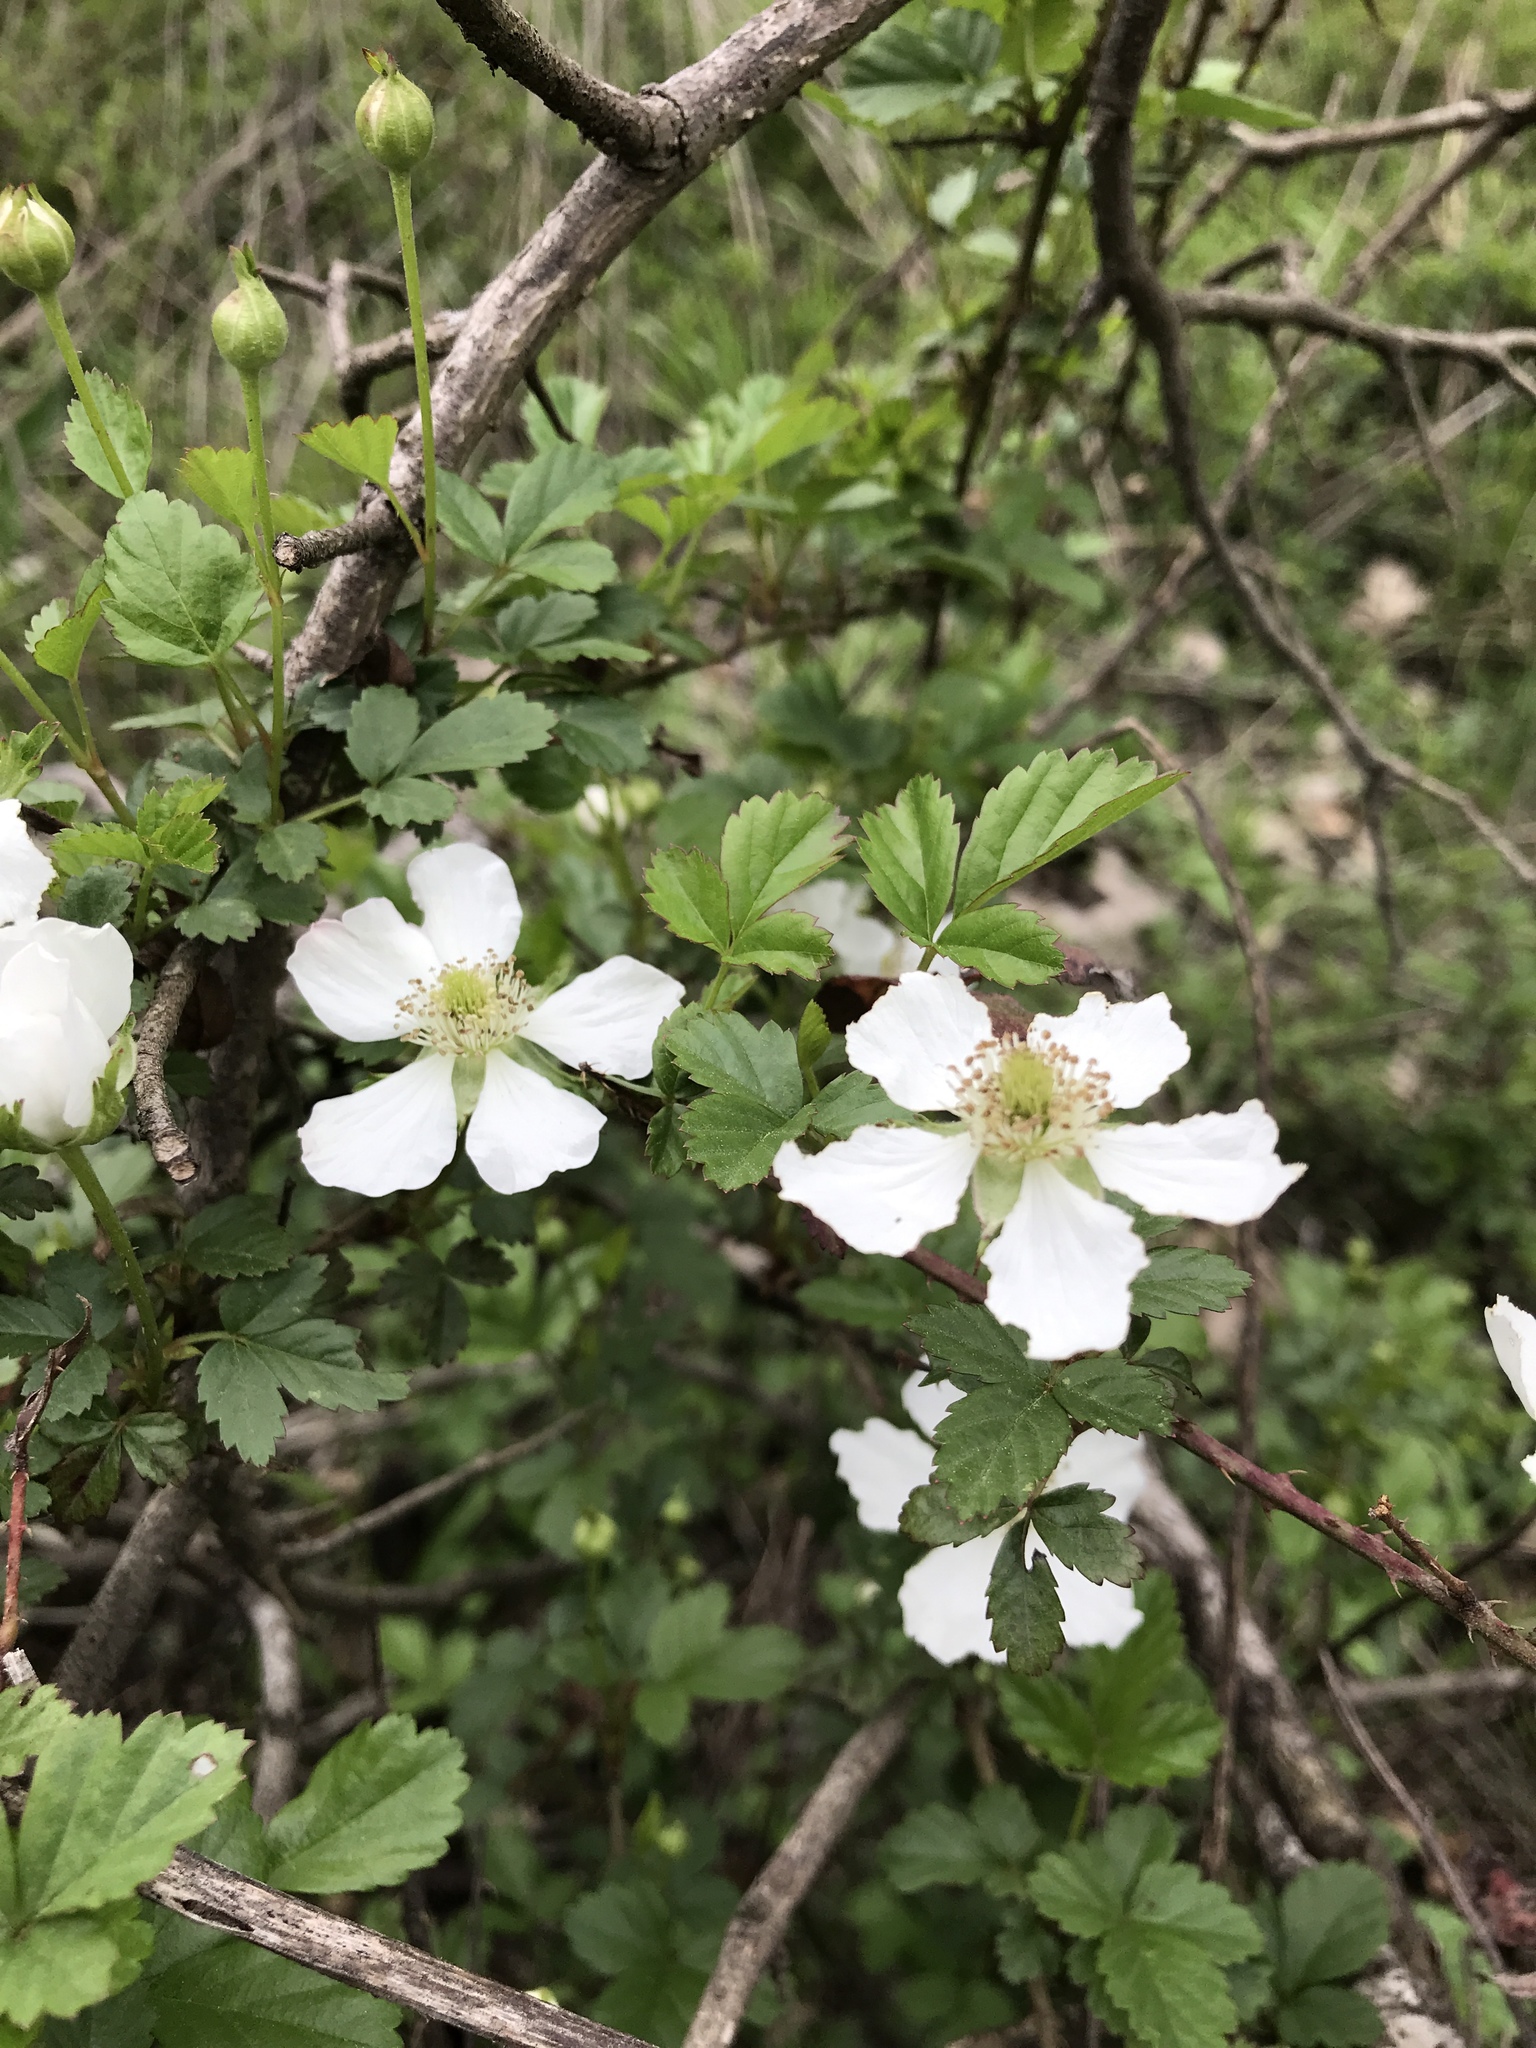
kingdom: Plantae
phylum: Tracheophyta
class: Magnoliopsida
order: Rosales
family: Rosaceae
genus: Rubus
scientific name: Rubus trivialis
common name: Southern dewberry
